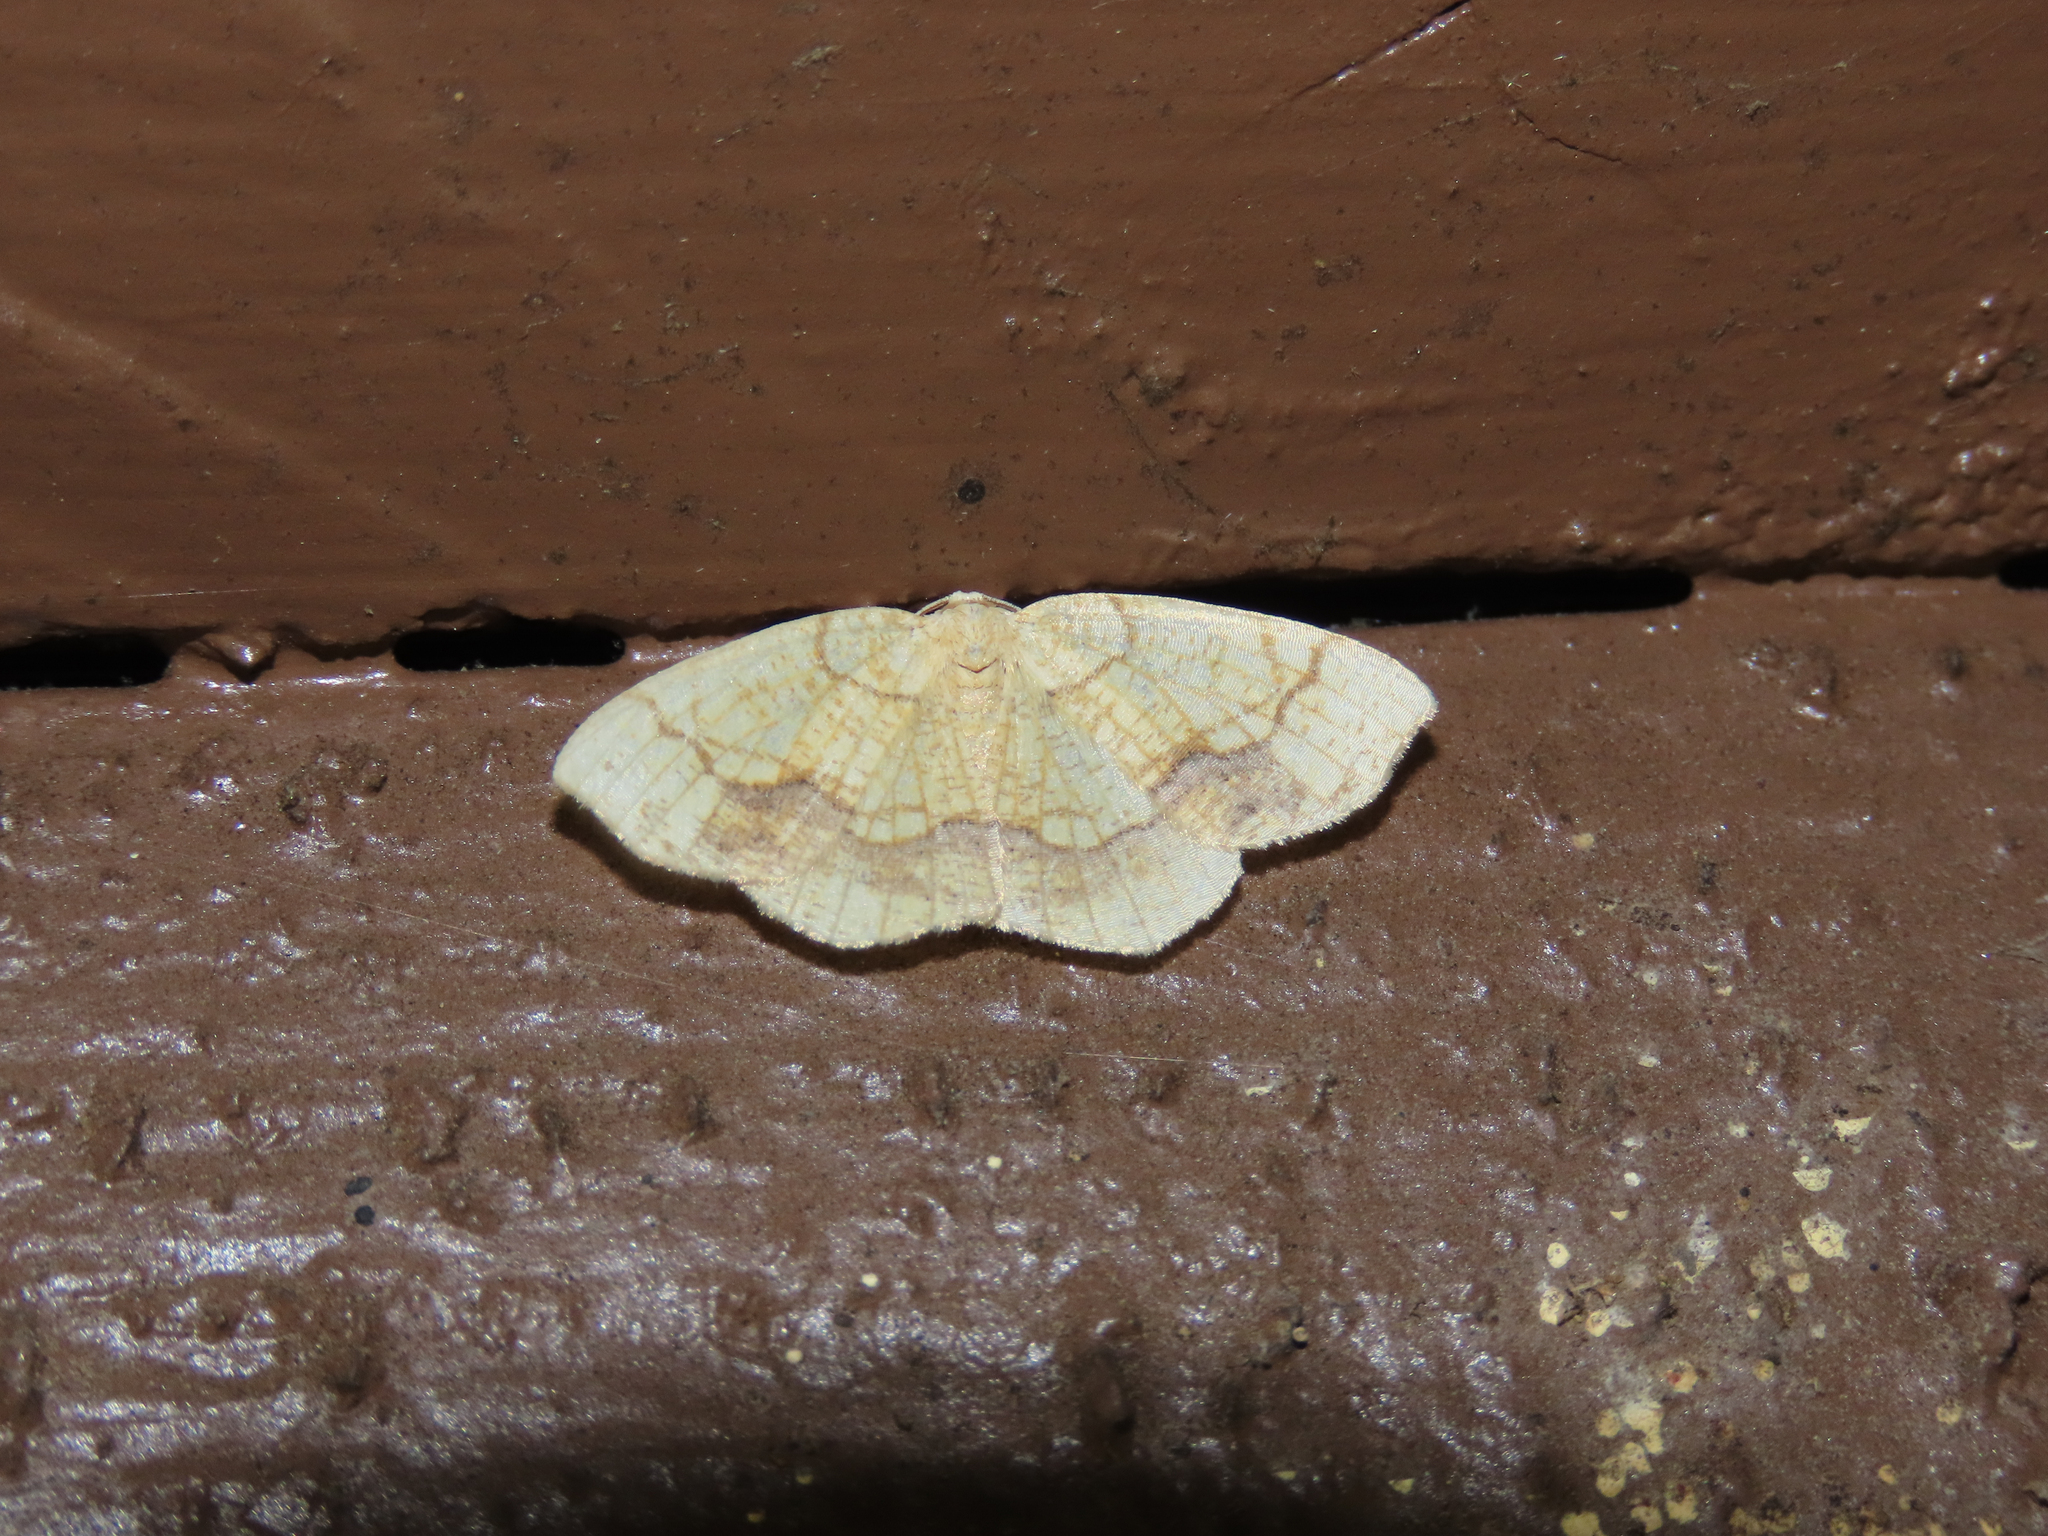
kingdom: Animalia
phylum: Arthropoda
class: Insecta
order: Lepidoptera
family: Geometridae
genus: Nematocampa
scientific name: Nematocampa resistaria
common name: Horned spanworm moth
